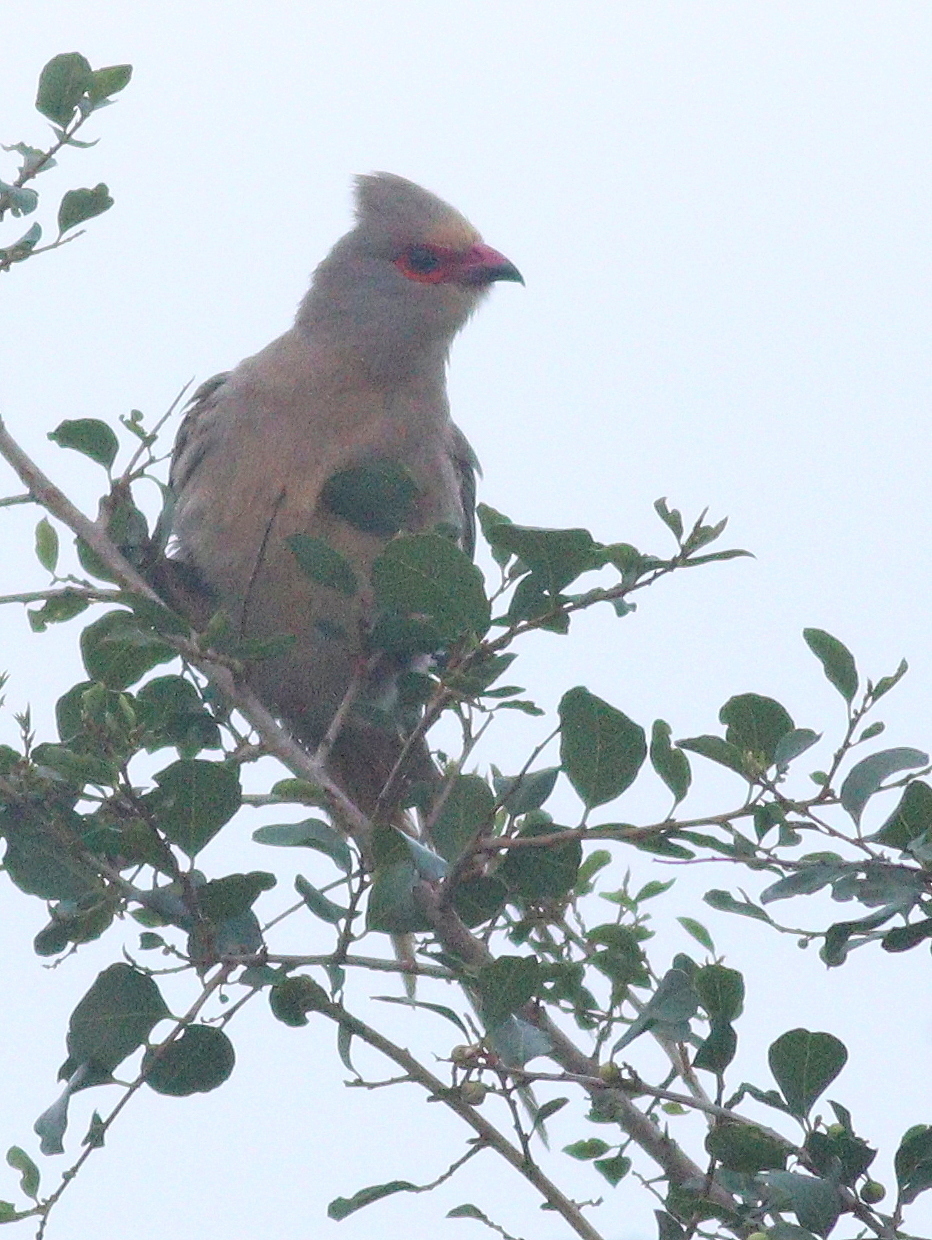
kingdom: Animalia
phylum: Chordata
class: Aves
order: Coliiformes
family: Coliidae
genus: Urocolius
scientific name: Urocolius indicus
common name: Red-faced mousebird
